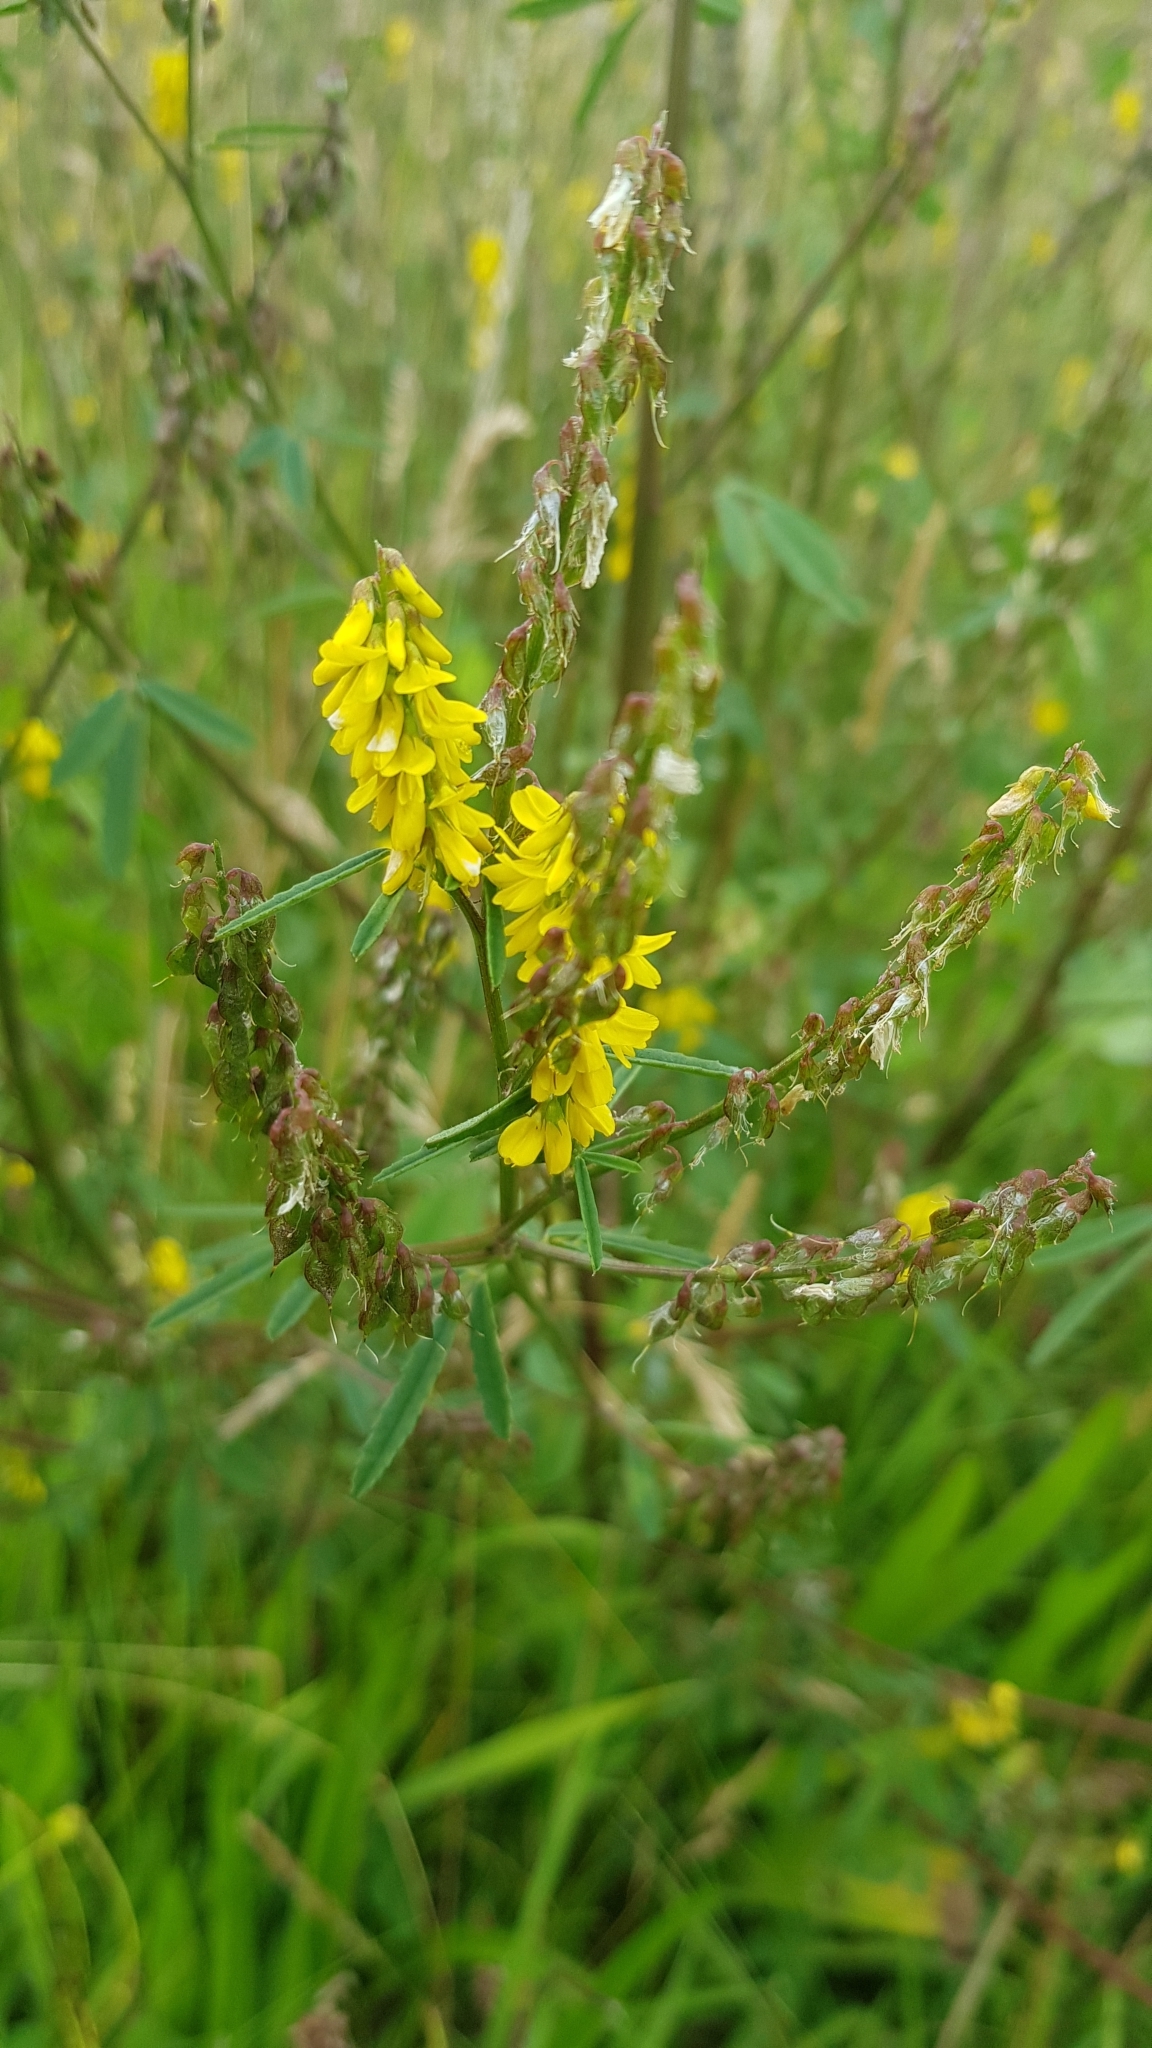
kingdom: Plantae
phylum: Tracheophyta
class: Magnoliopsida
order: Fabales
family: Fabaceae
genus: Melilotus
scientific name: Melilotus officinalis
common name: Sweetclover
